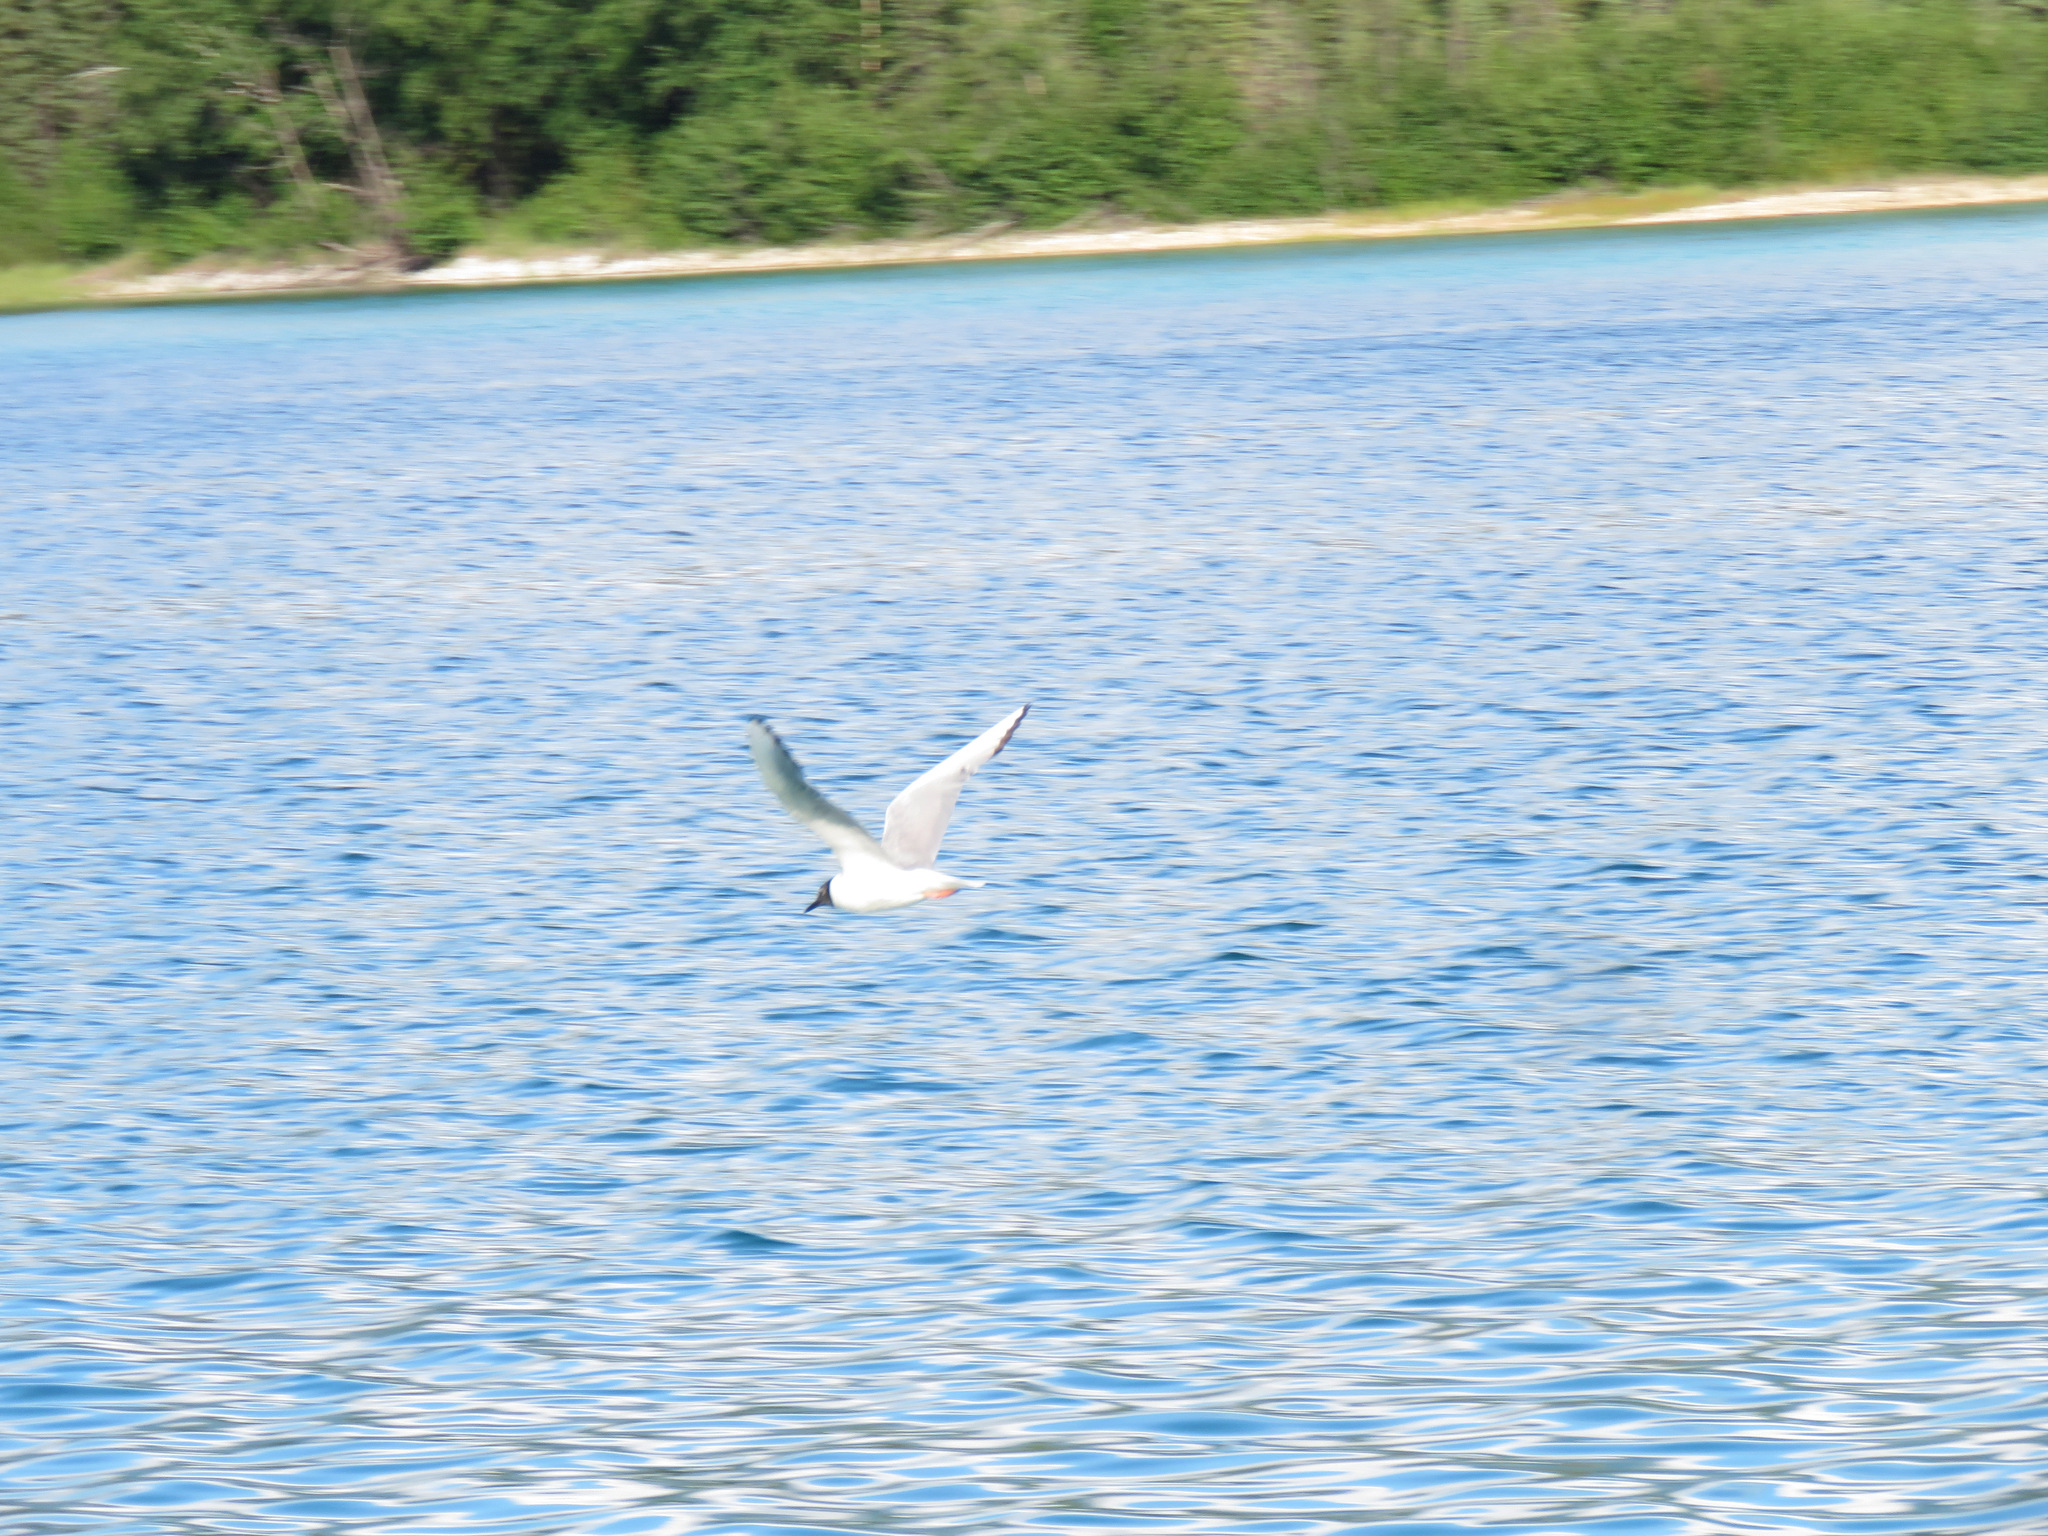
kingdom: Animalia
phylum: Chordata
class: Aves
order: Charadriiformes
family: Laridae
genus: Chroicocephalus
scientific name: Chroicocephalus philadelphia
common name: Bonaparte's gull
